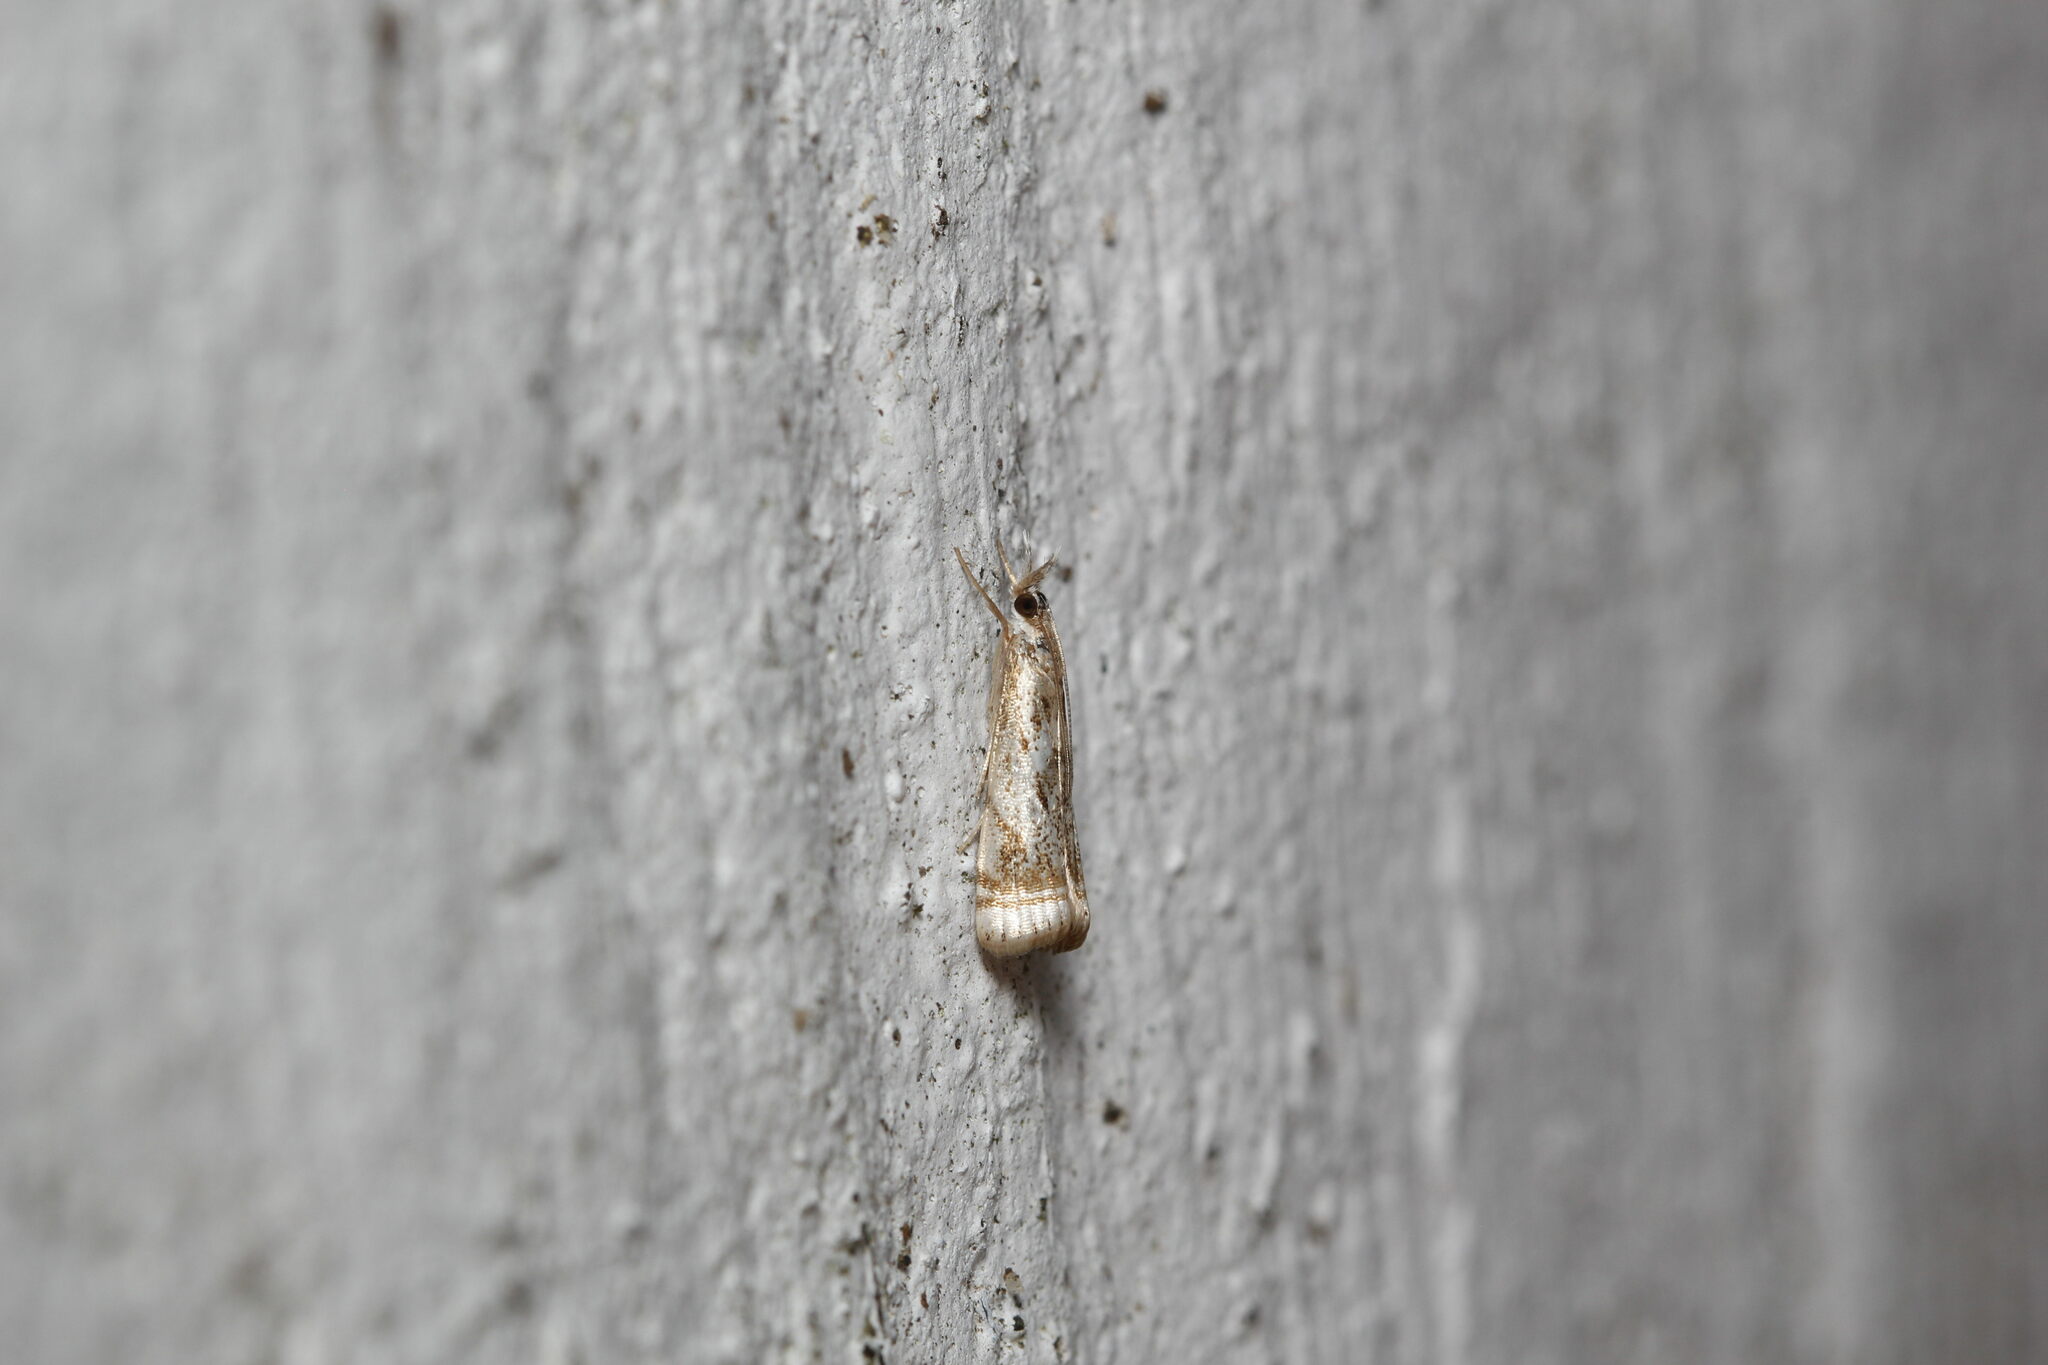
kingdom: Animalia
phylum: Arthropoda
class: Insecta
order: Lepidoptera
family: Crambidae
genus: Microcrambus
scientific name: Microcrambus elegans
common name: Elegant grass-veneer
